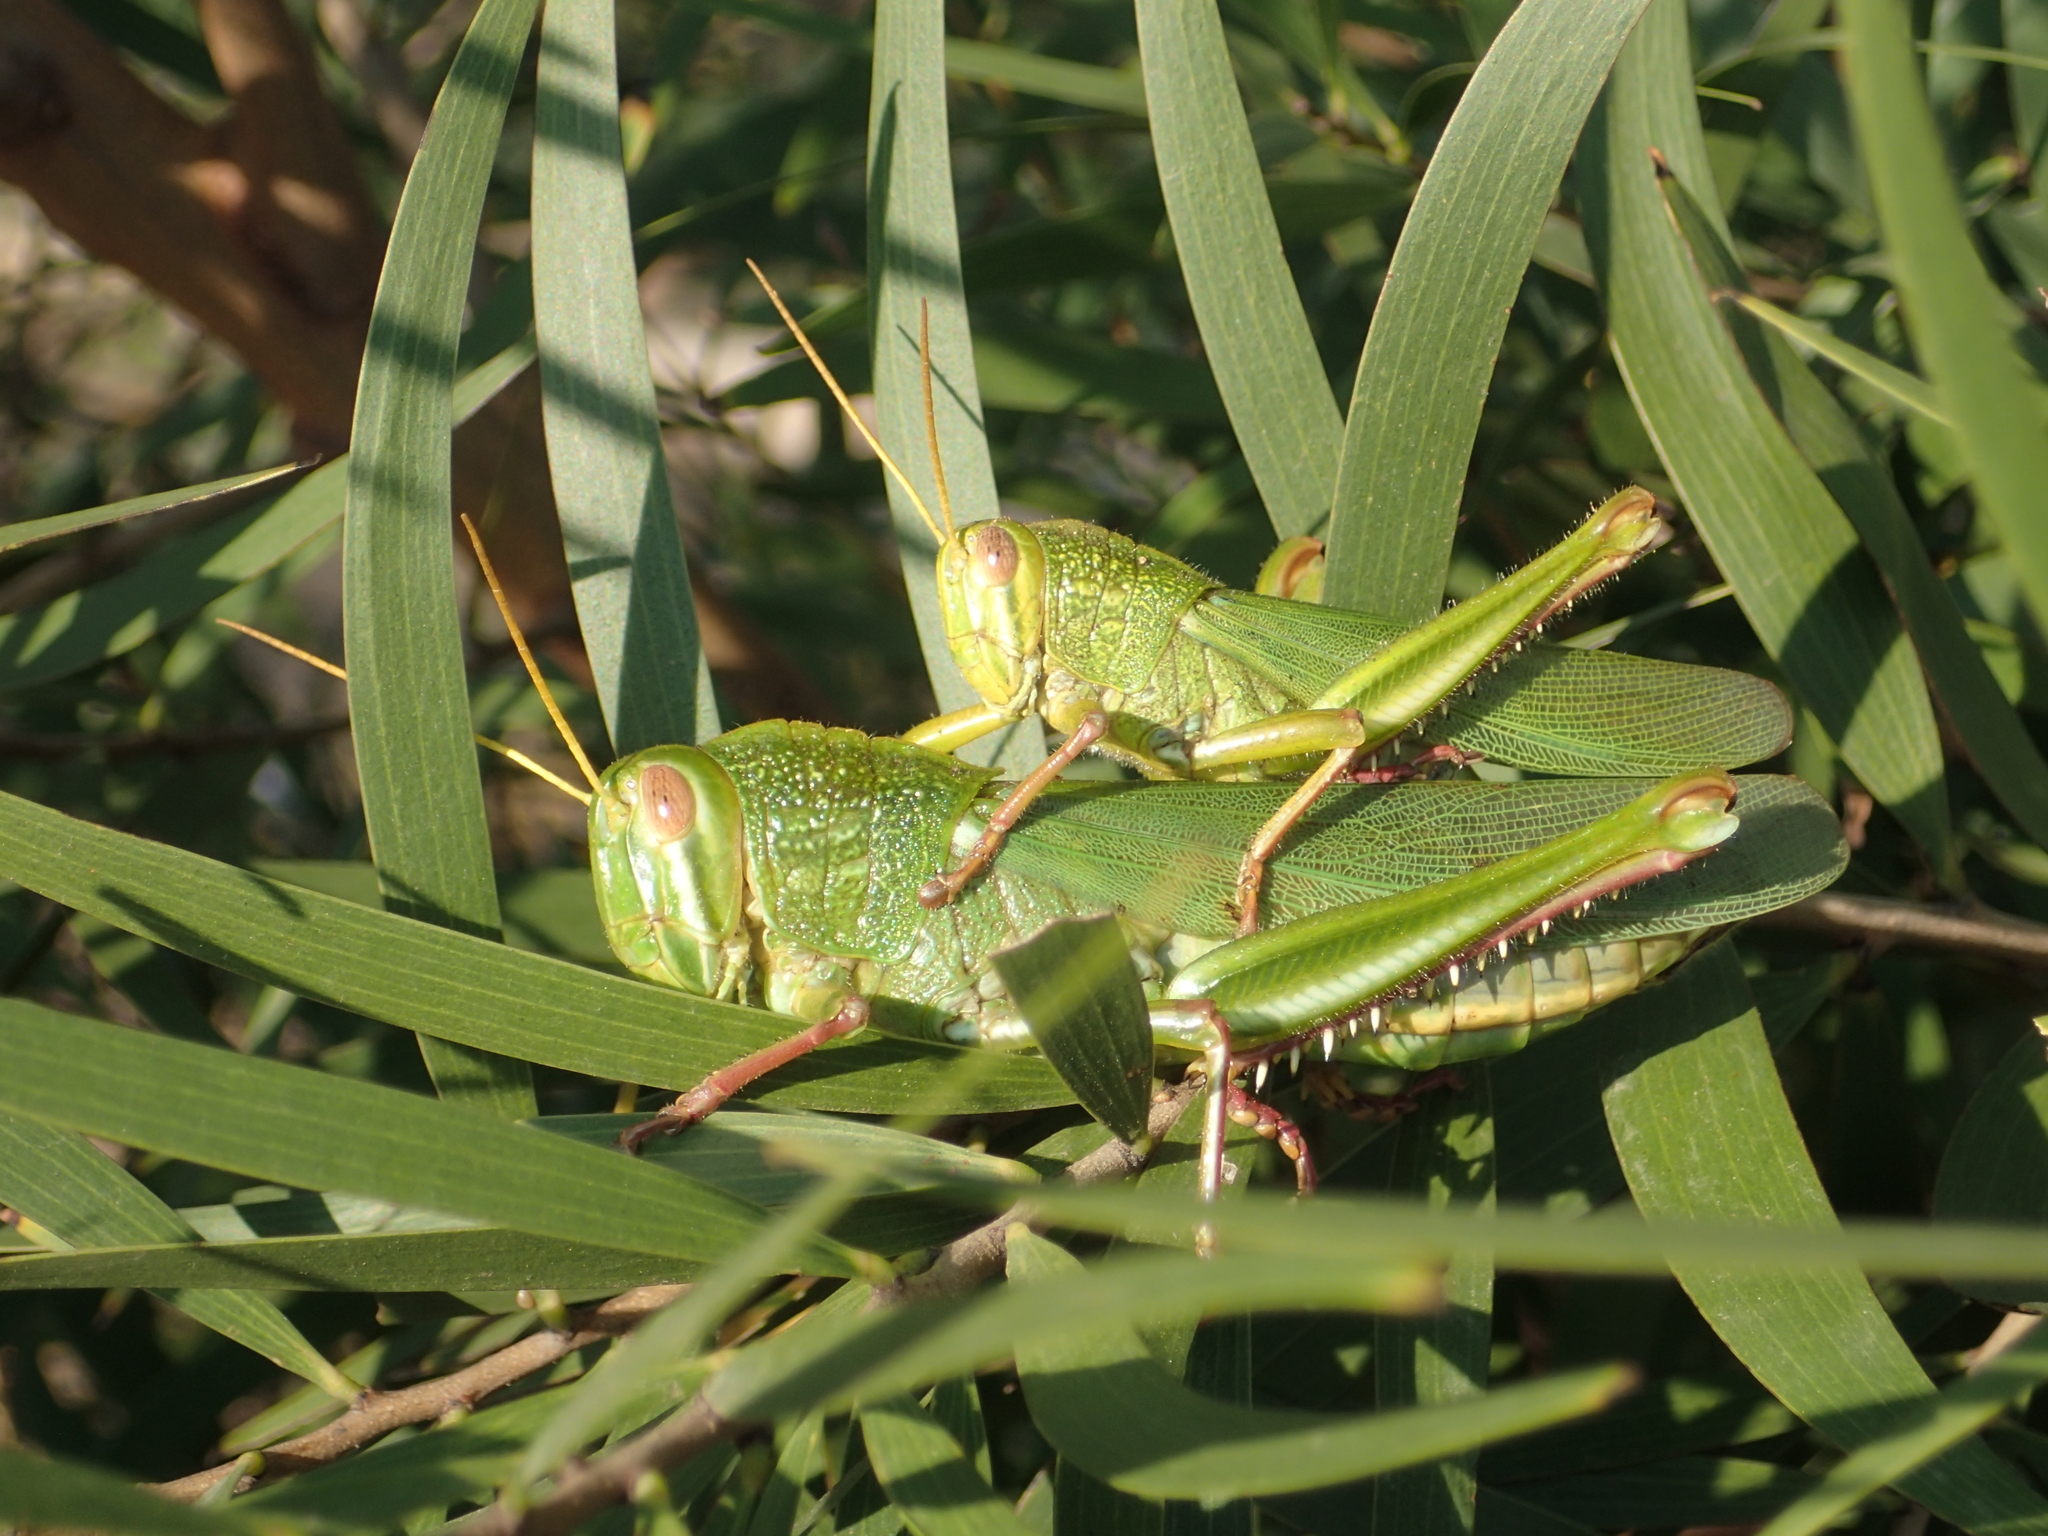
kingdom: Animalia
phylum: Arthropoda
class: Insecta
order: Orthoptera
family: Acrididae
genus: Chondracris
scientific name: Chondracris rosea
